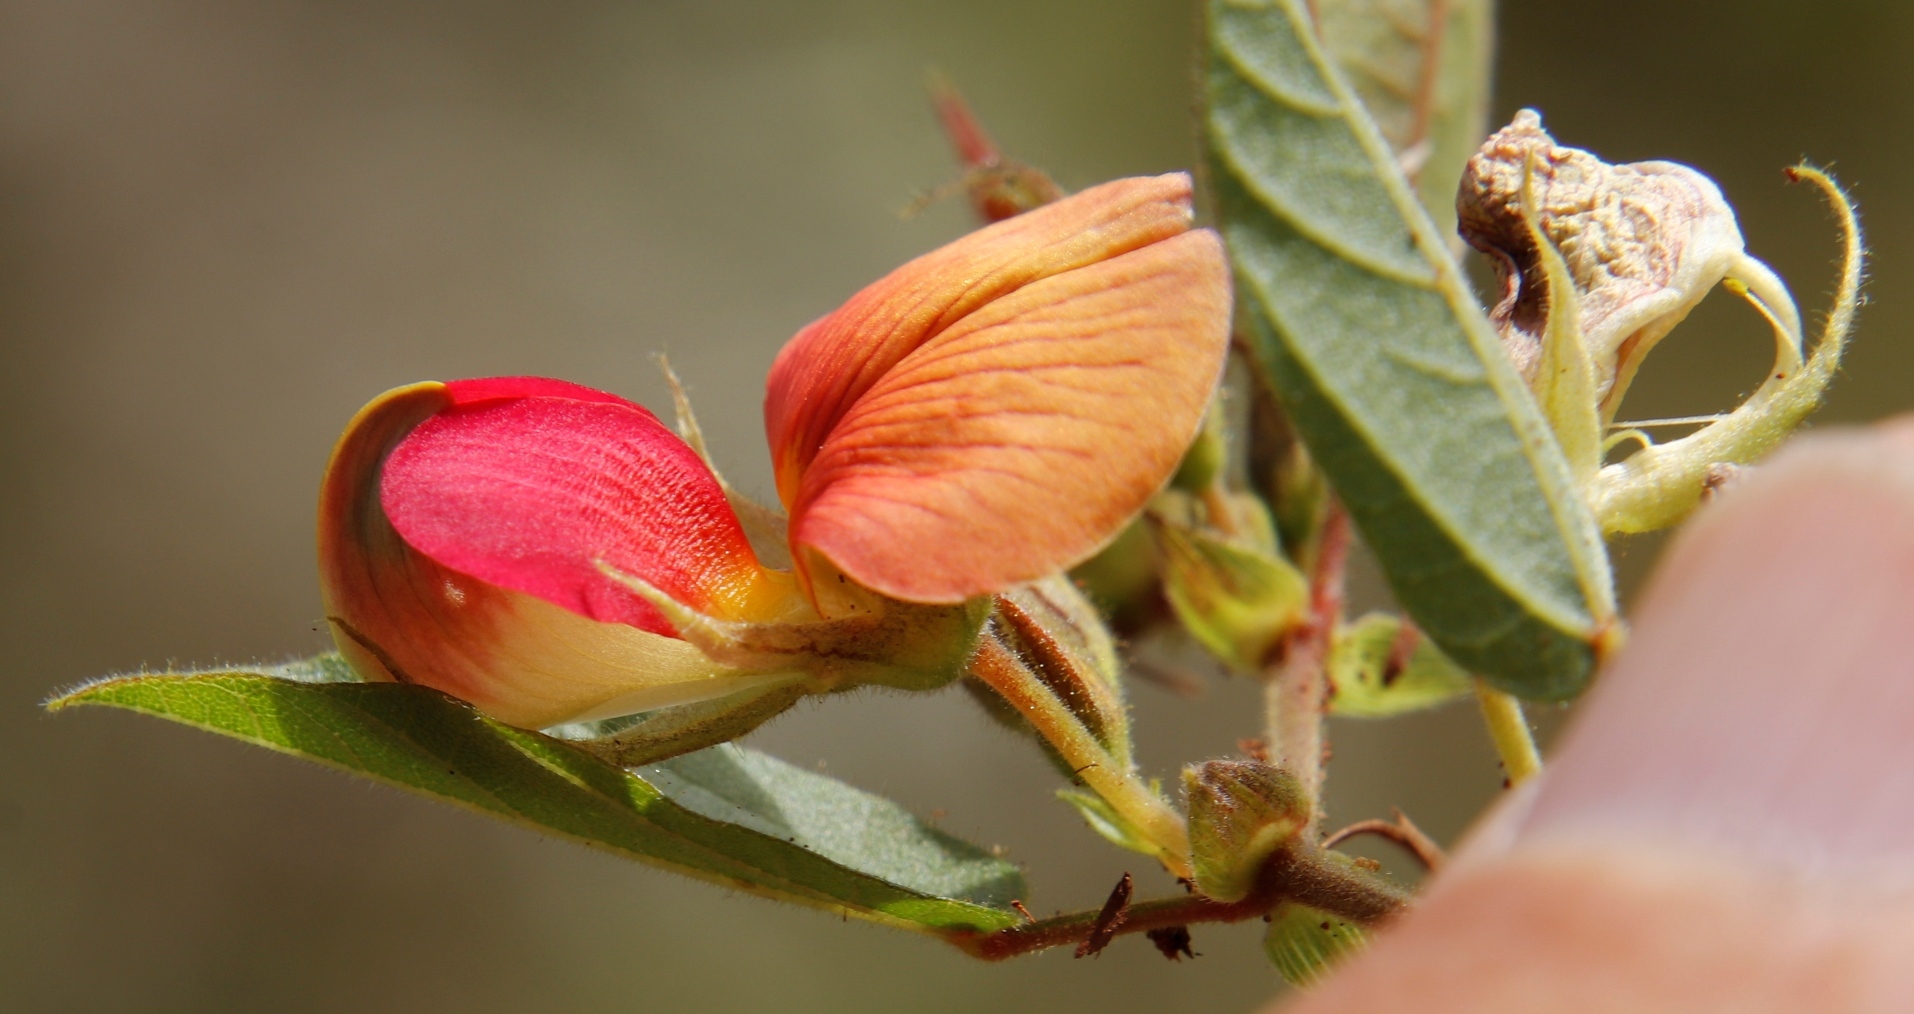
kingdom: Plantae
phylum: Tracheophyta
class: Magnoliopsida
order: Fabales
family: Fabaceae
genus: Rhynchosia
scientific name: Rhynchosia monophylla
